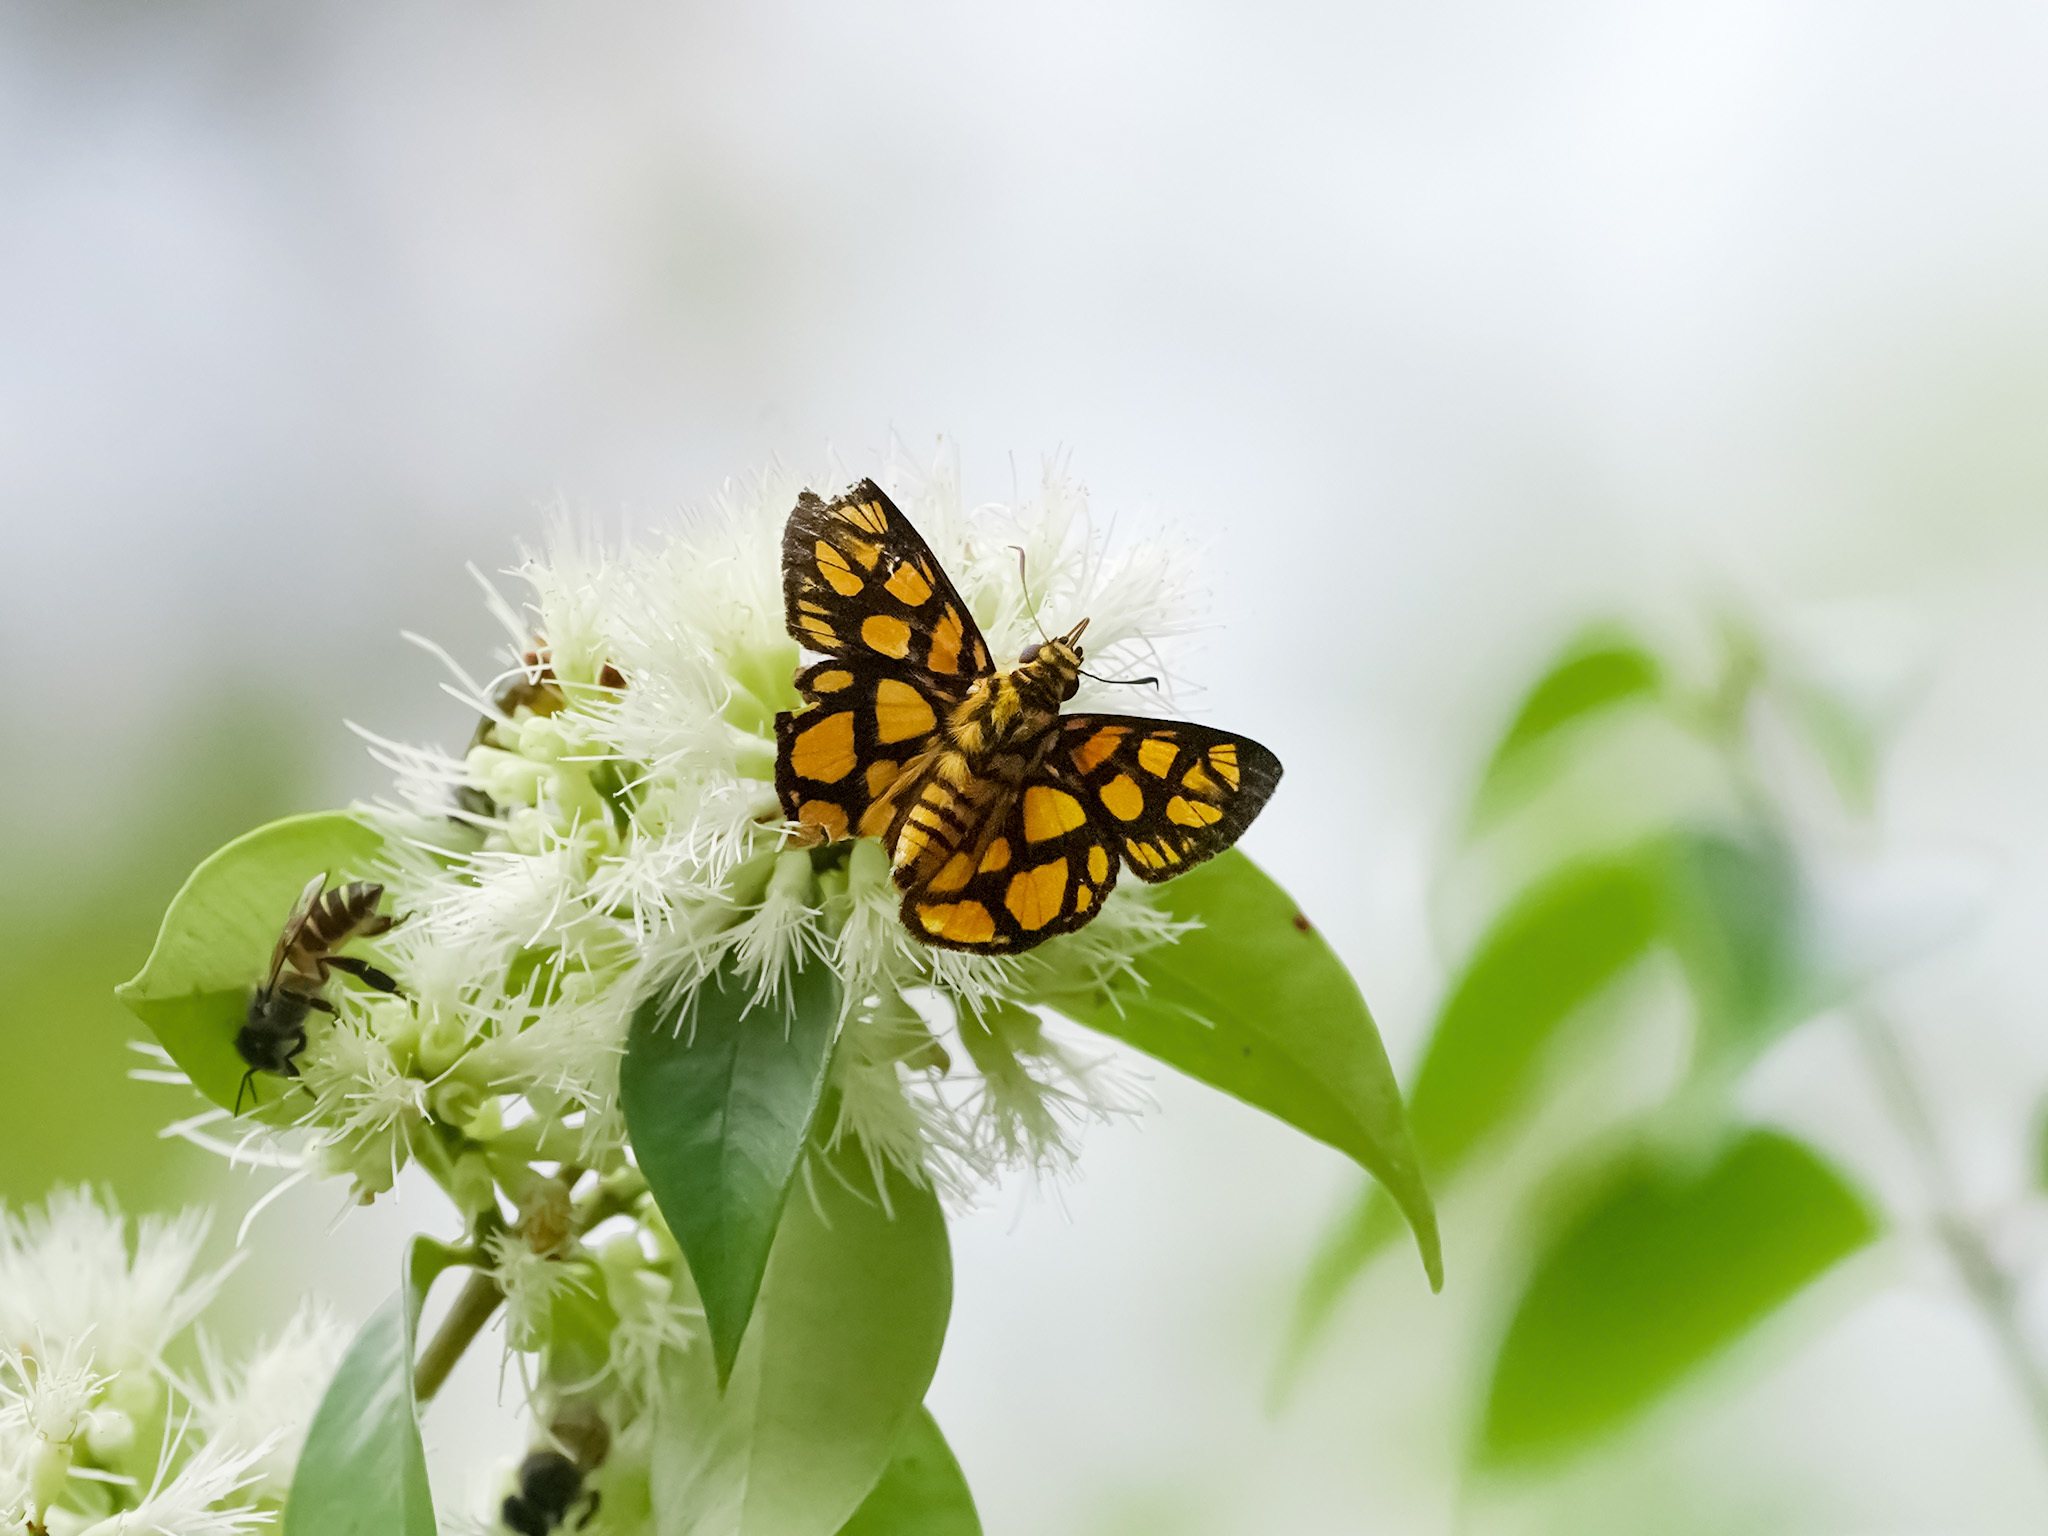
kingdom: Animalia
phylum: Arthropoda
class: Insecta
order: Lepidoptera
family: Hesperiidae
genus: Odina
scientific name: Odina hieroglyphica
